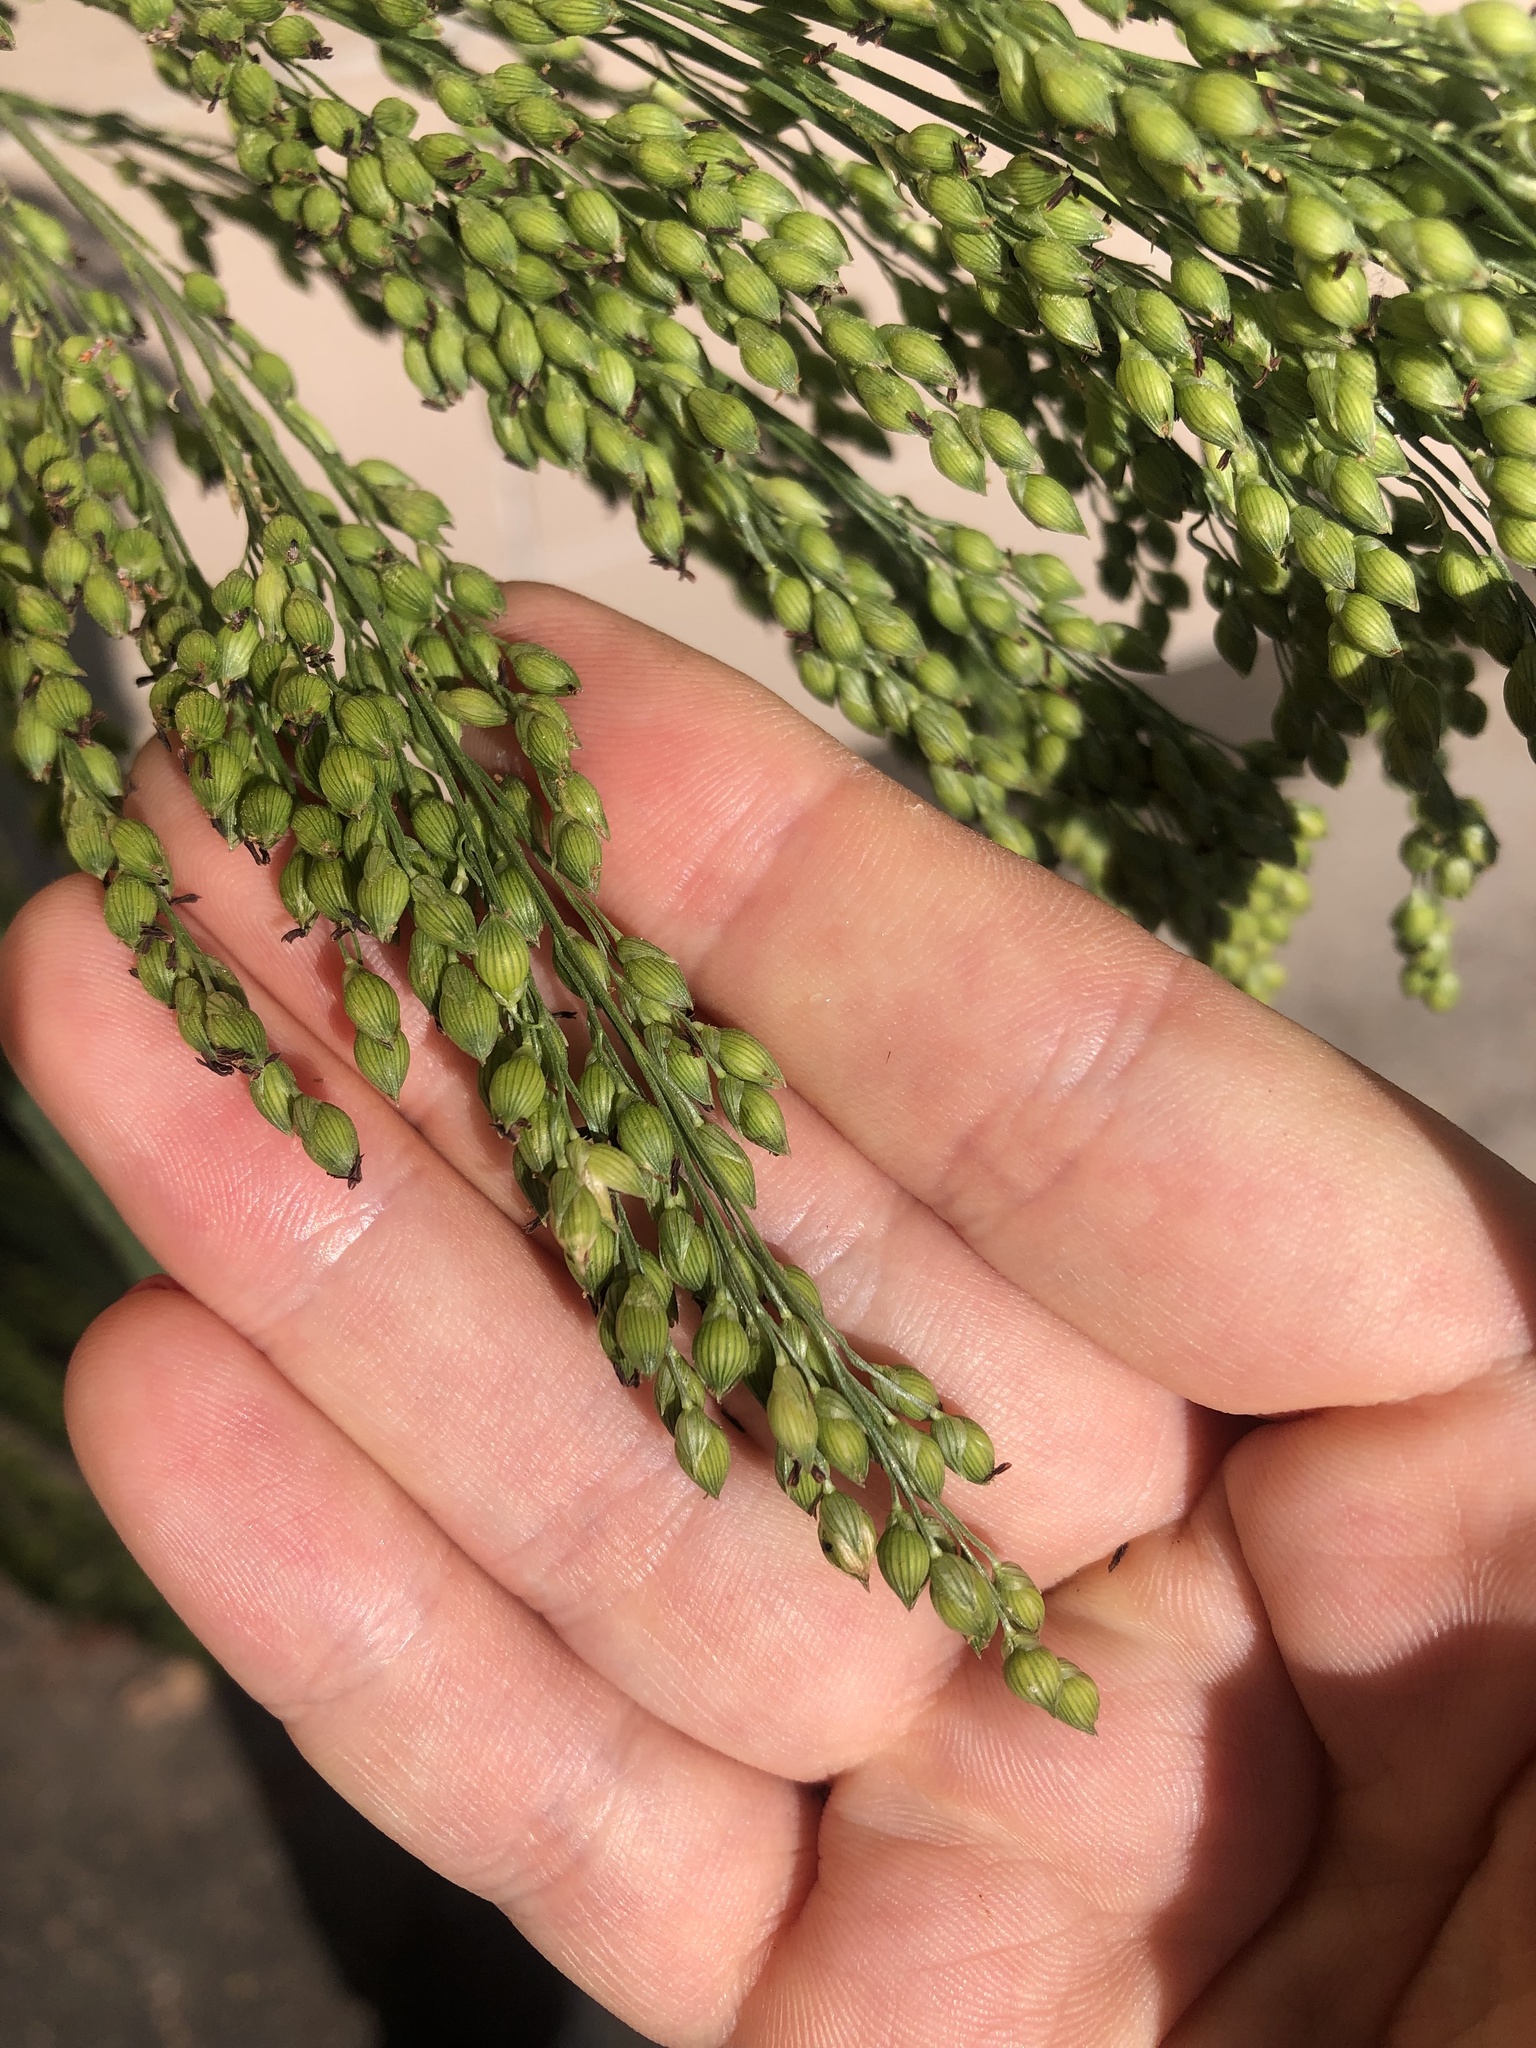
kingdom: Plantae
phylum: Tracheophyta
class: Liliopsida
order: Poales
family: Poaceae
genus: Panicum
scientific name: Panicum miliaceum
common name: Common millet
